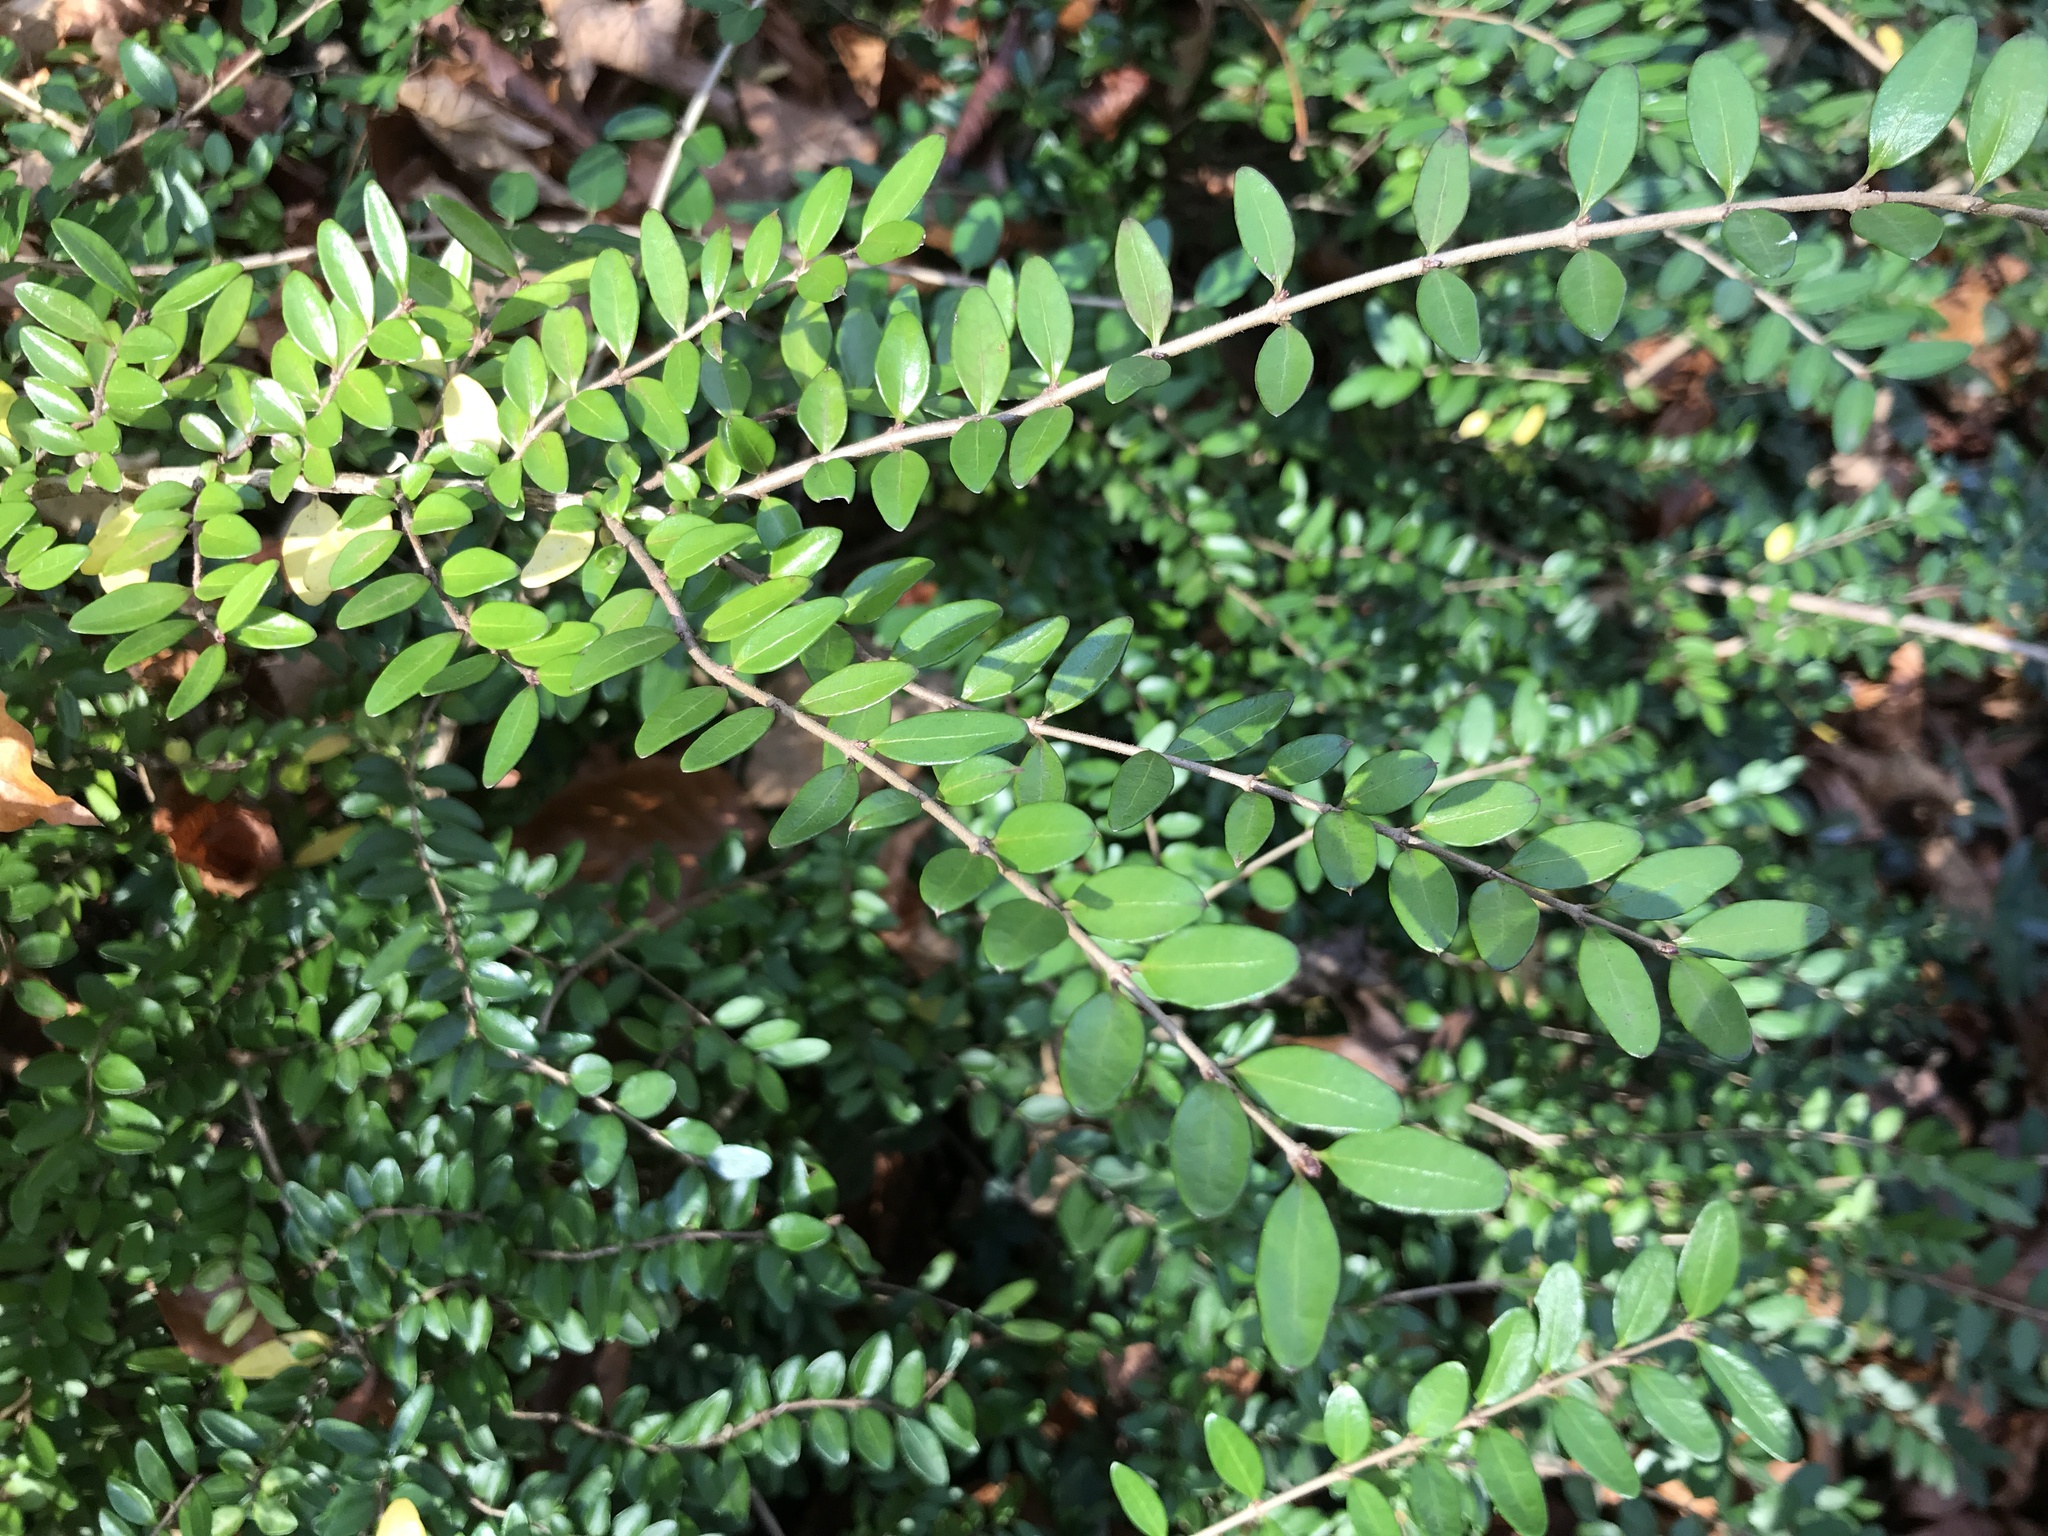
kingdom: Plantae
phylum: Tracheophyta
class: Magnoliopsida
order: Dipsacales
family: Caprifoliaceae
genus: Lonicera
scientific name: Lonicera ligustrina
